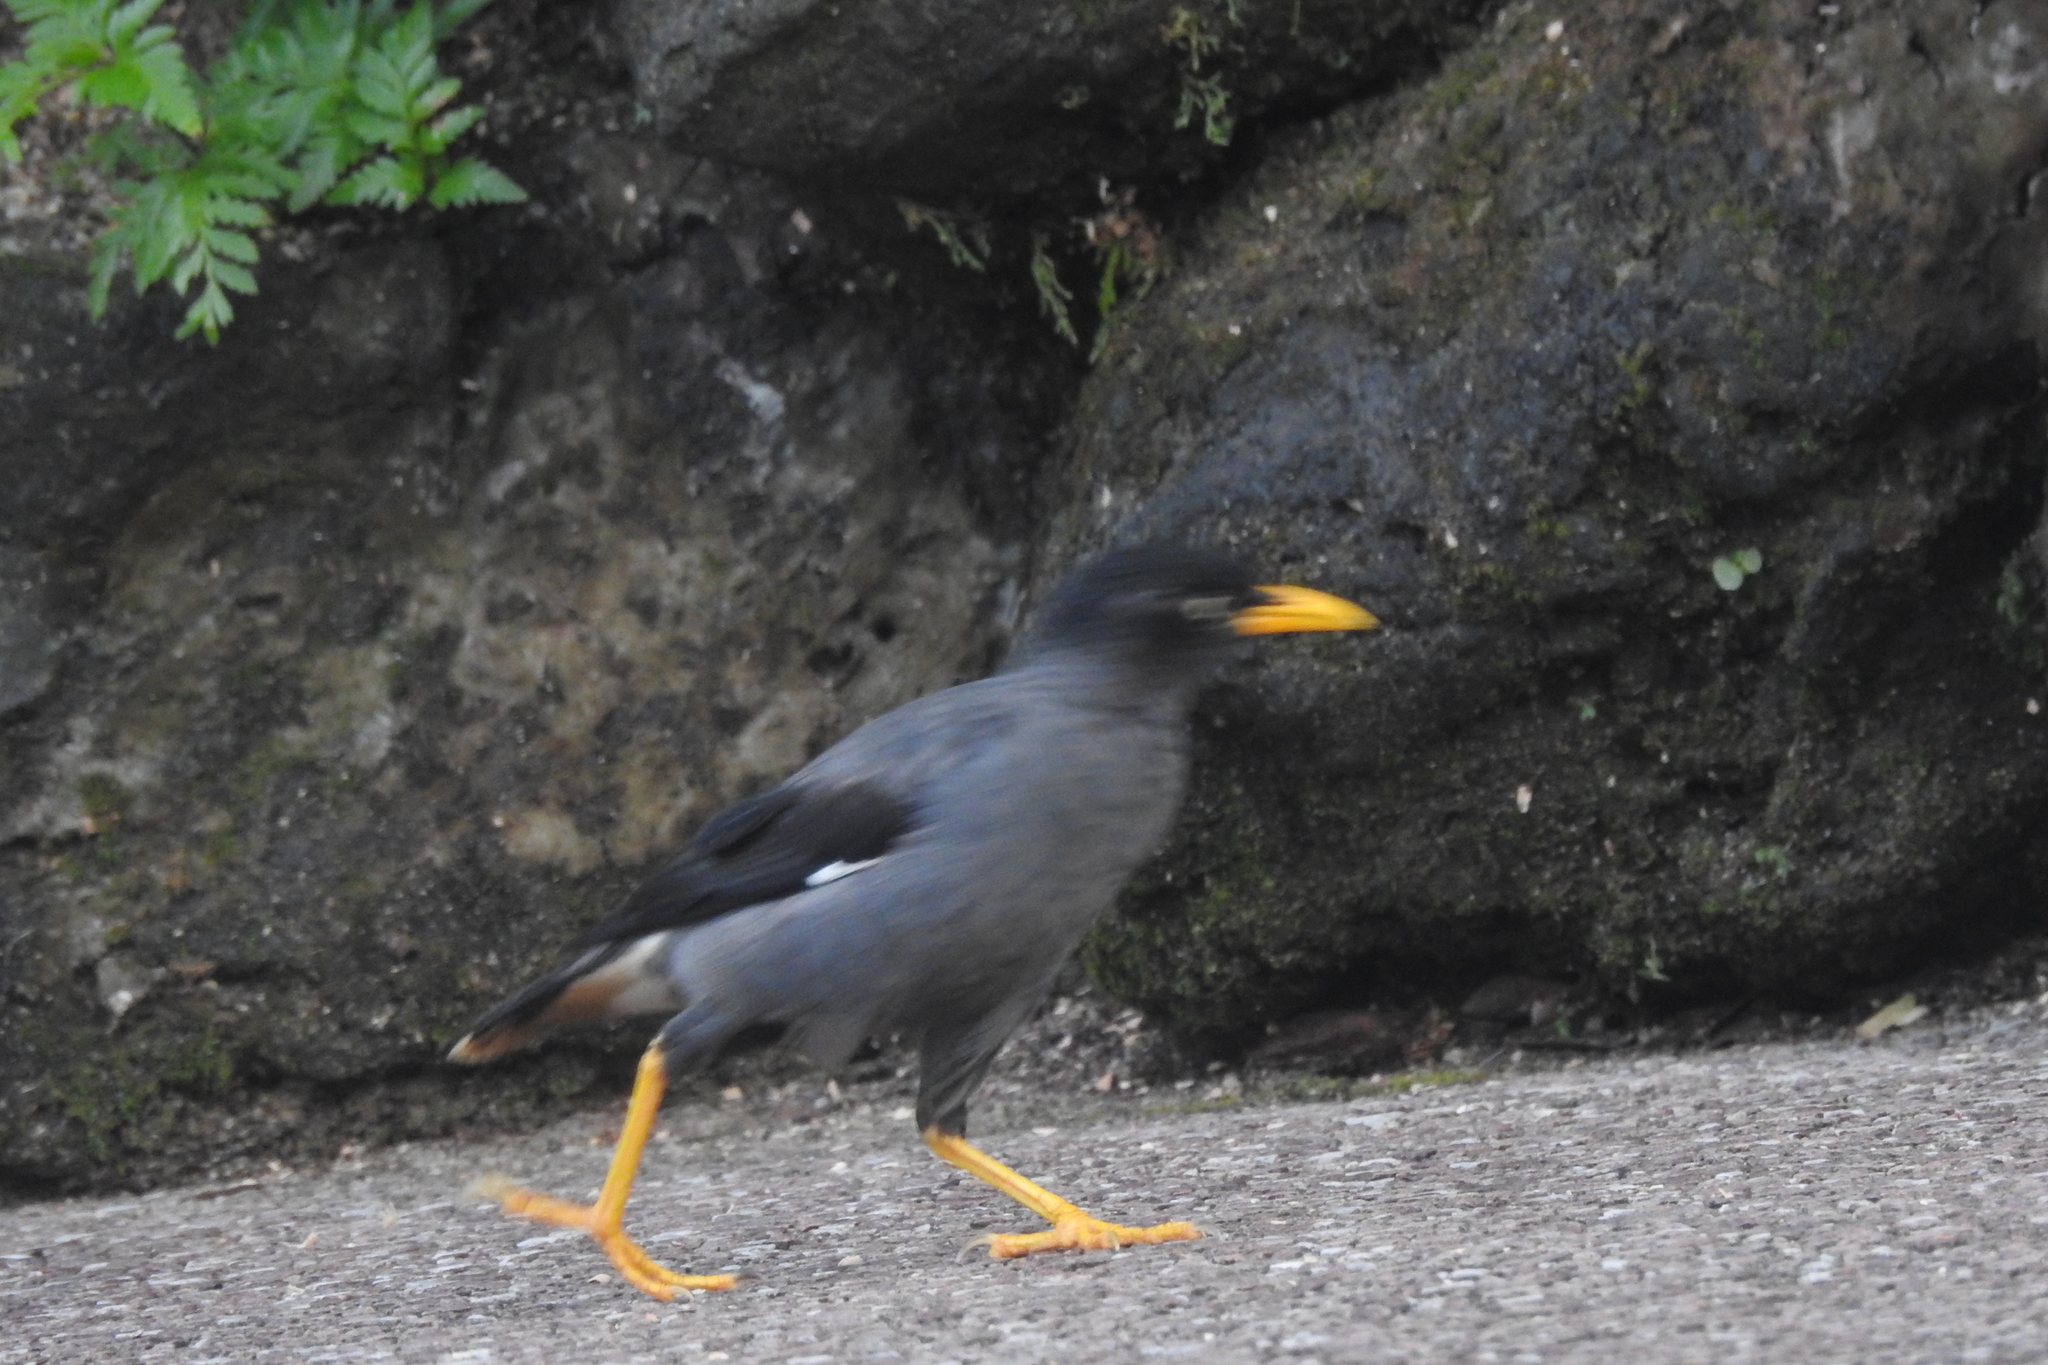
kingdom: Animalia
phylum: Chordata
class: Aves
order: Passeriformes
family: Sturnidae
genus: Acridotheres
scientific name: Acridotheres javanicus
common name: Javan myna
